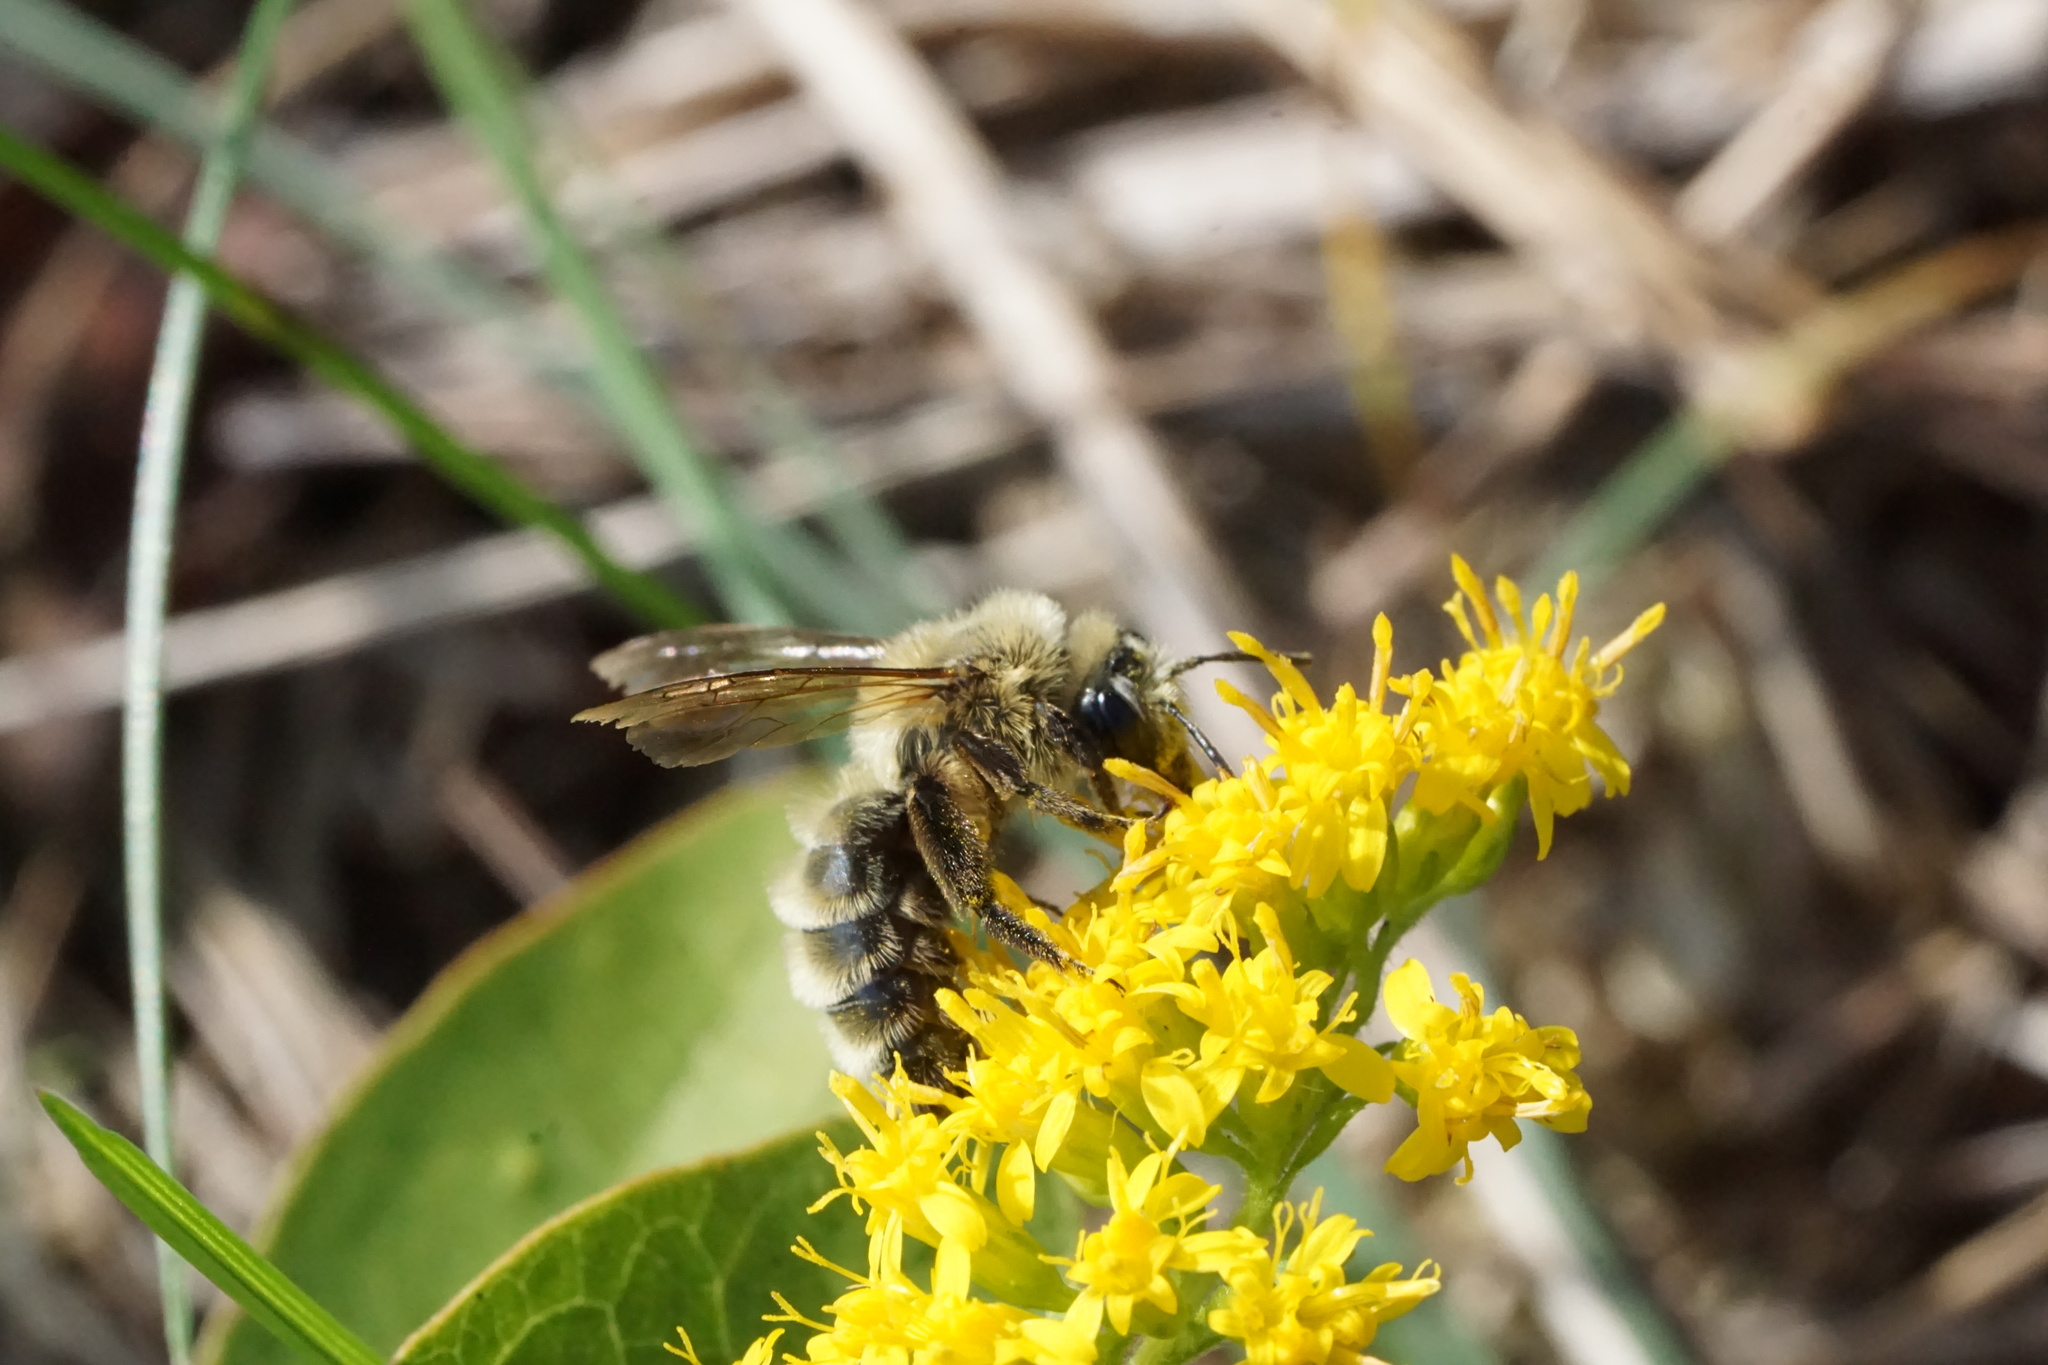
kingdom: Animalia
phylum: Arthropoda
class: Insecta
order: Hymenoptera
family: Andrenidae
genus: Andrena
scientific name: Andrena hirticincta
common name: Hairy-banded mining bee
